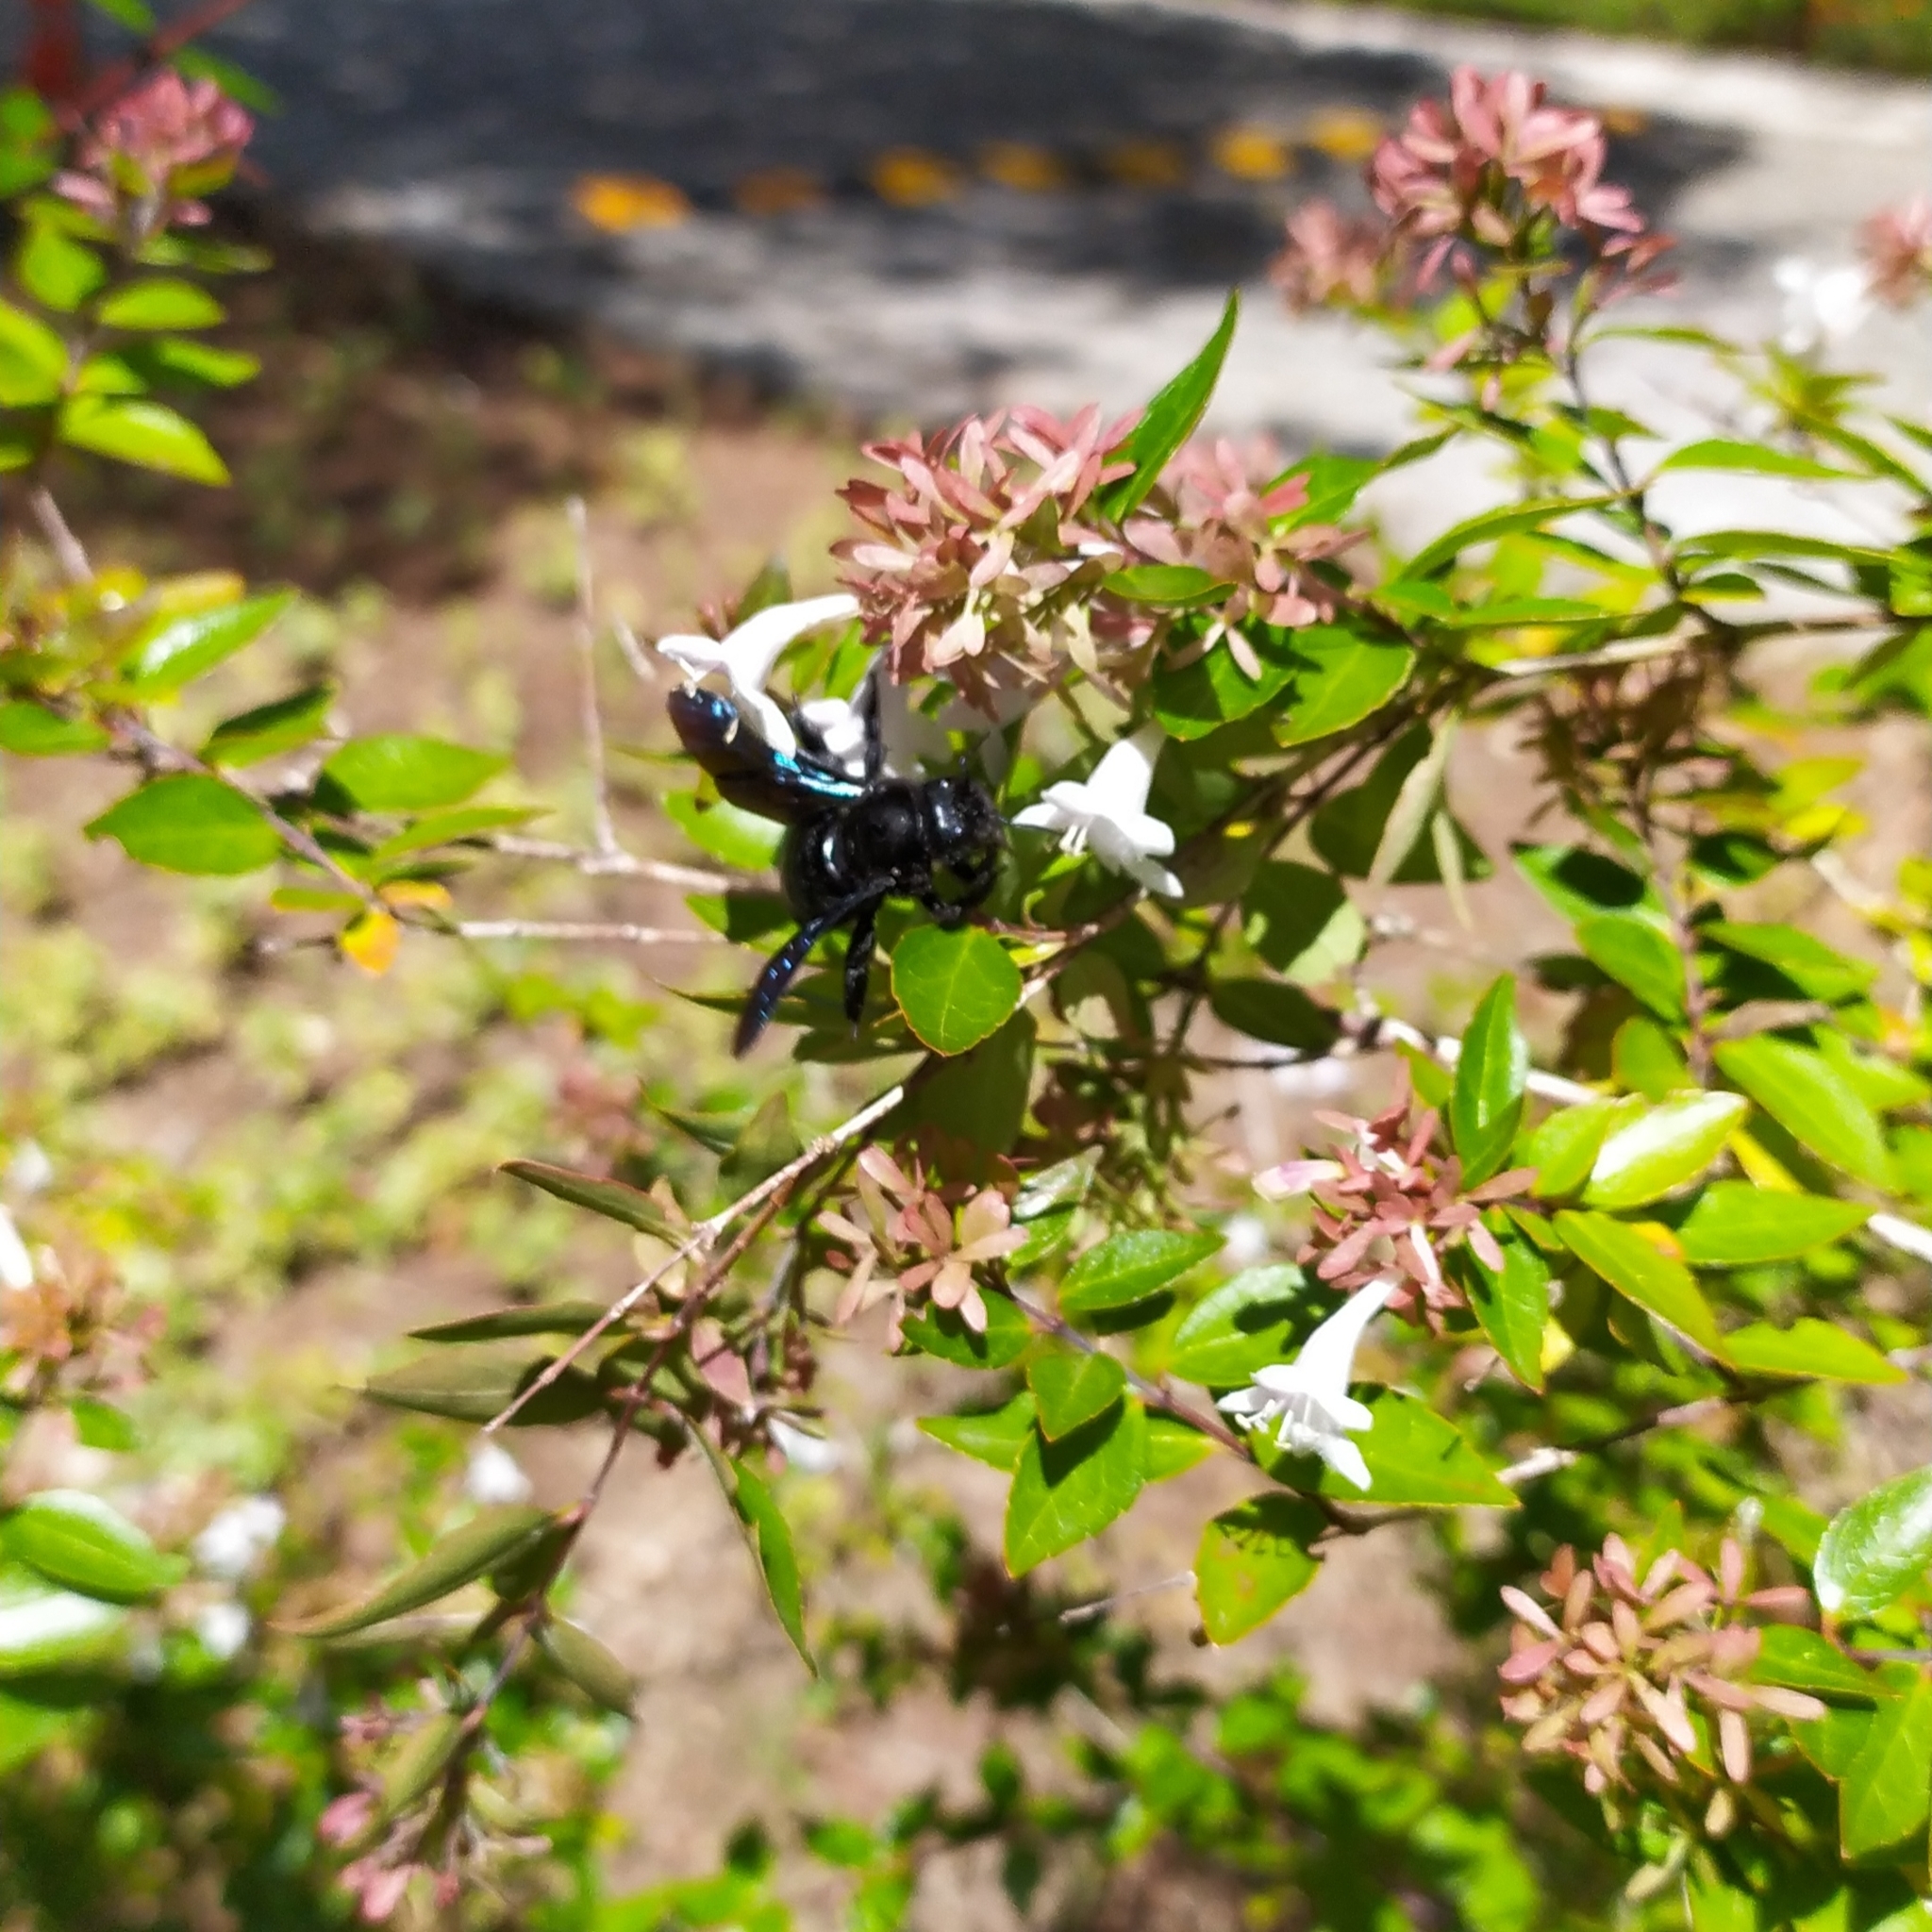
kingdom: Animalia
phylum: Arthropoda
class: Insecta
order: Hymenoptera
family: Apidae
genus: Xylocopa
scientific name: Xylocopa violacea
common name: Violet carpenter bee
